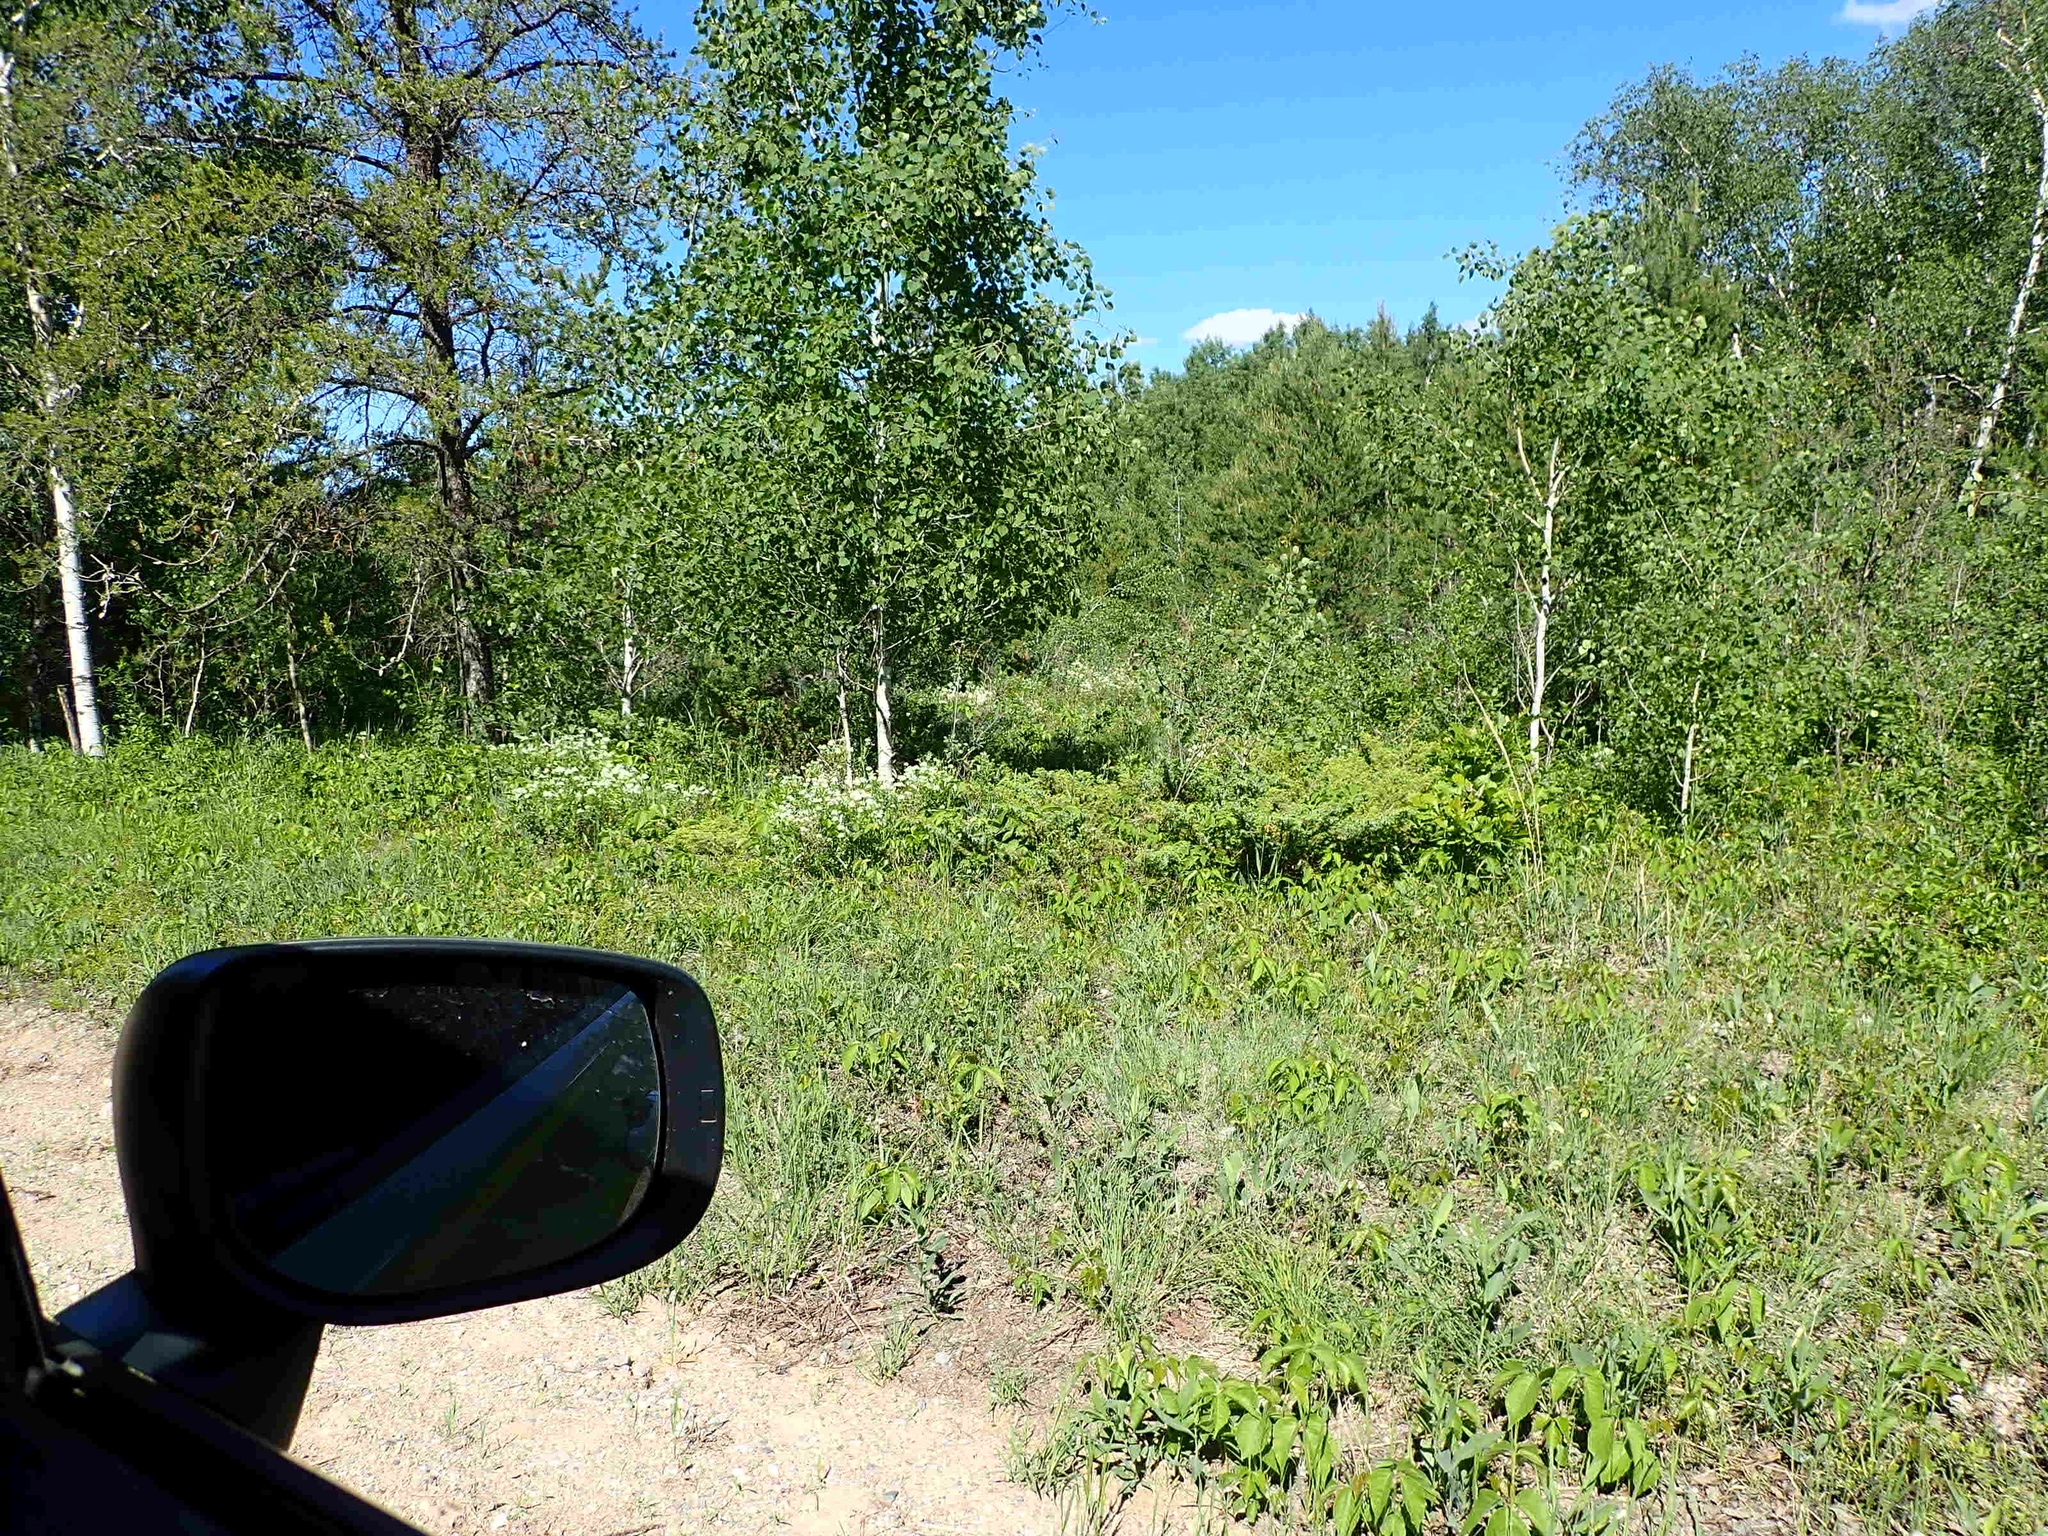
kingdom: Plantae
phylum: Tracheophyta
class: Magnoliopsida
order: Rosales
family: Rhamnaceae
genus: Ceanothus
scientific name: Ceanothus herbaceus
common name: Inland ceanothus
